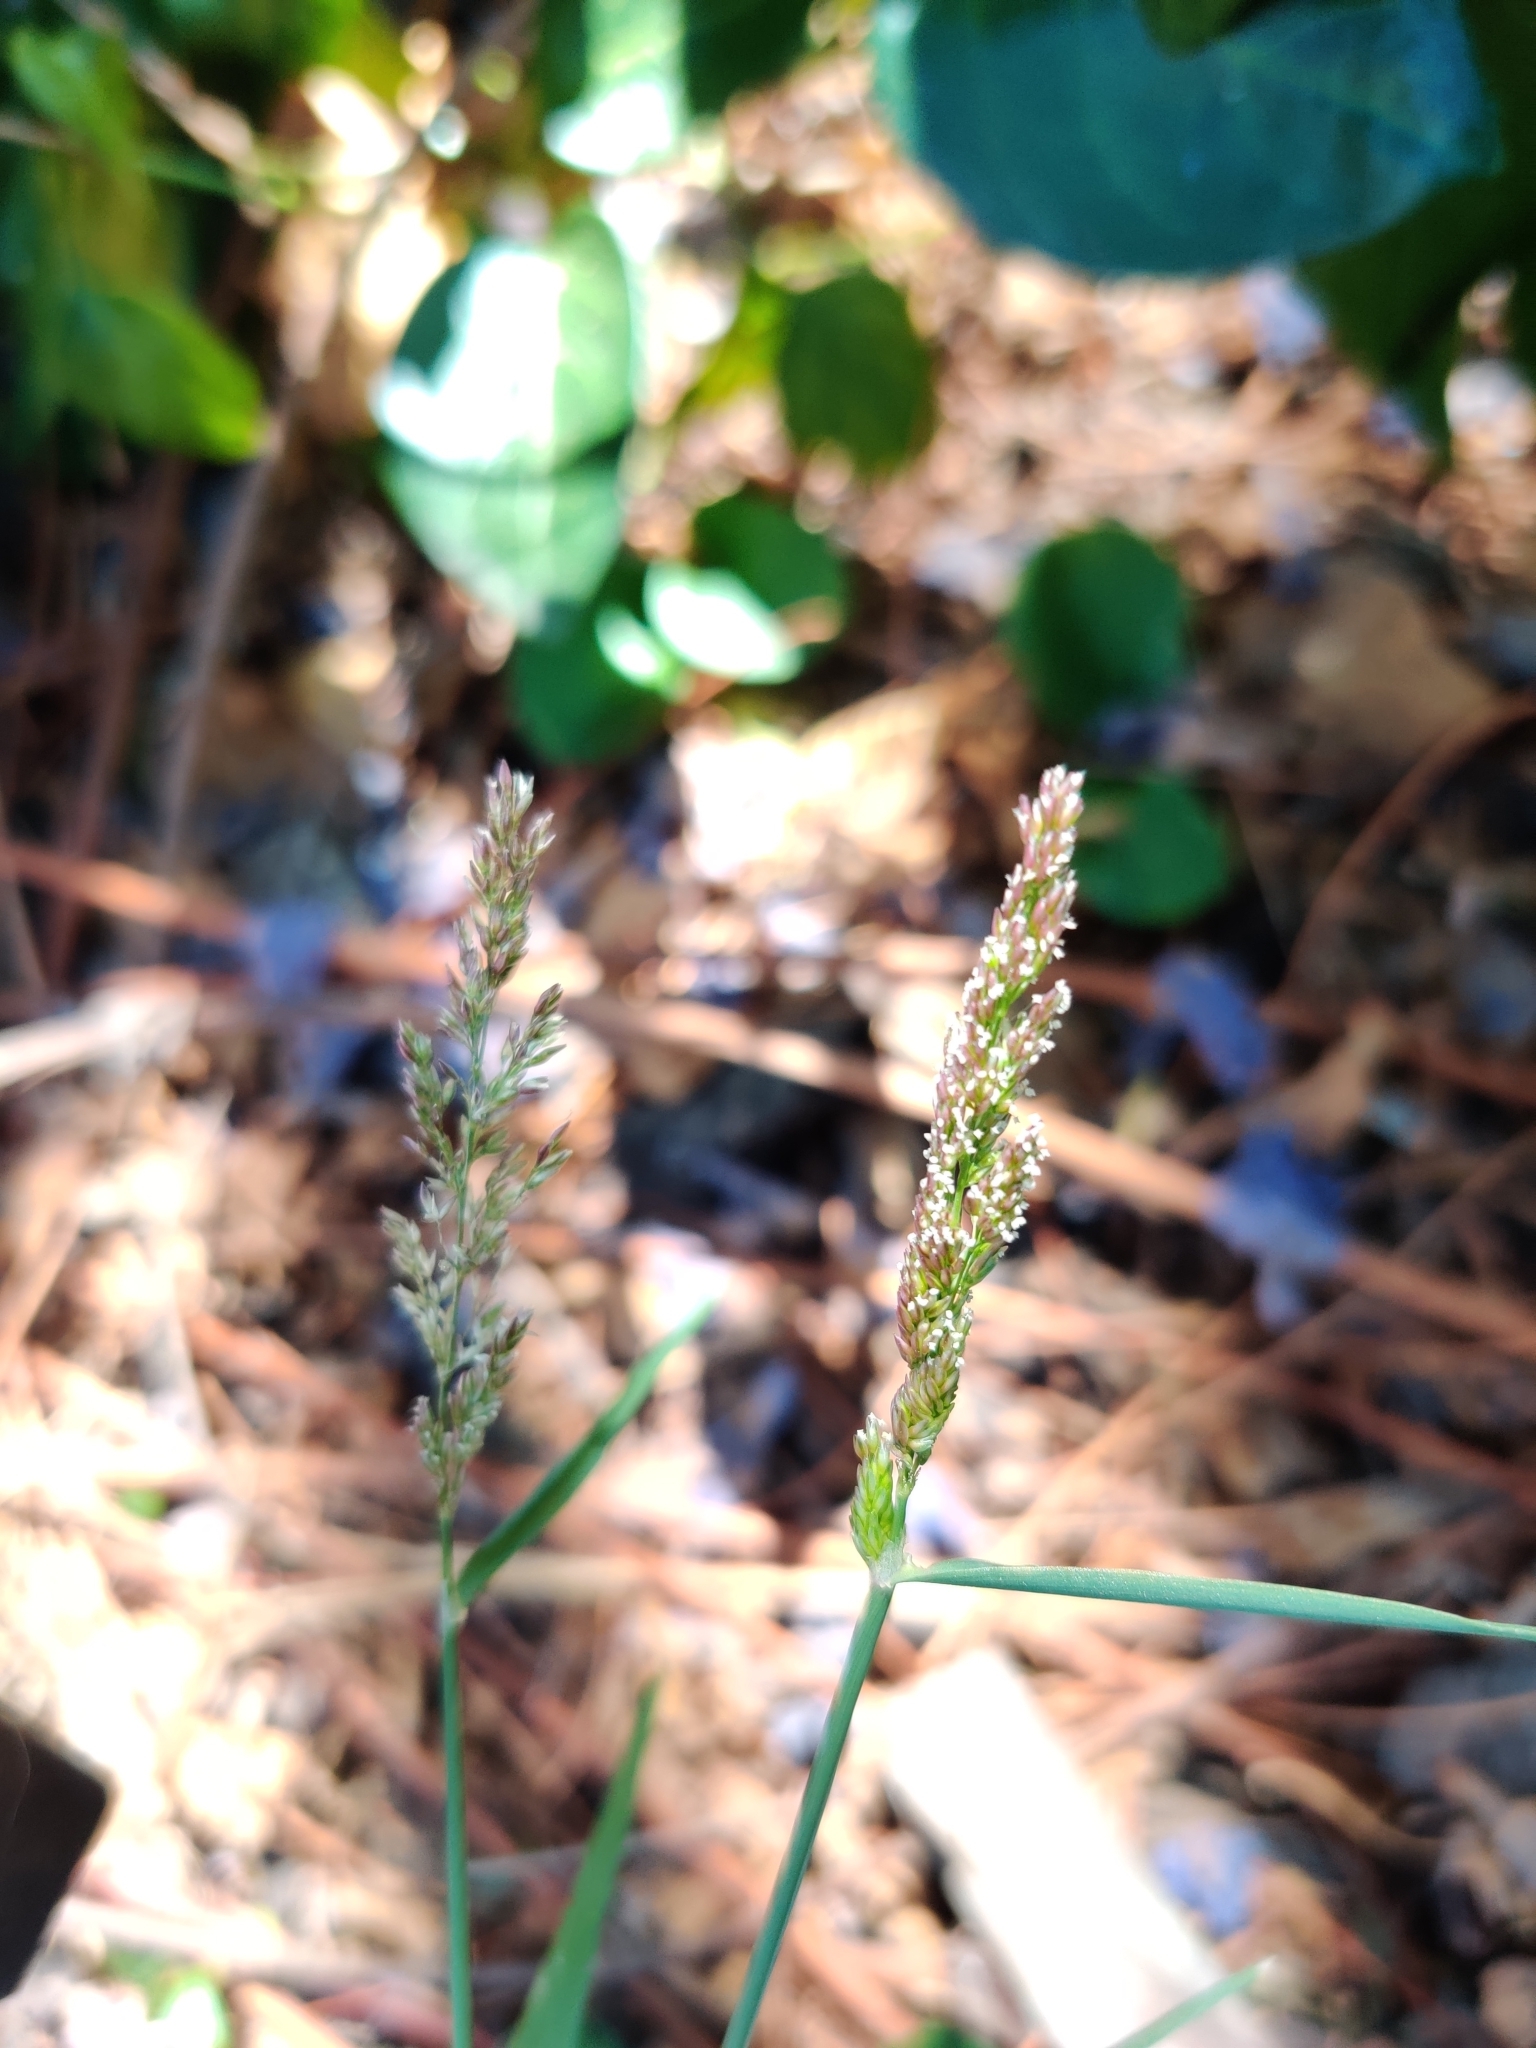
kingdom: Plantae
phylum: Tracheophyta
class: Liliopsida
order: Poales
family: Poaceae
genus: Polypogon
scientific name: Polypogon viridis
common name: Water bent
